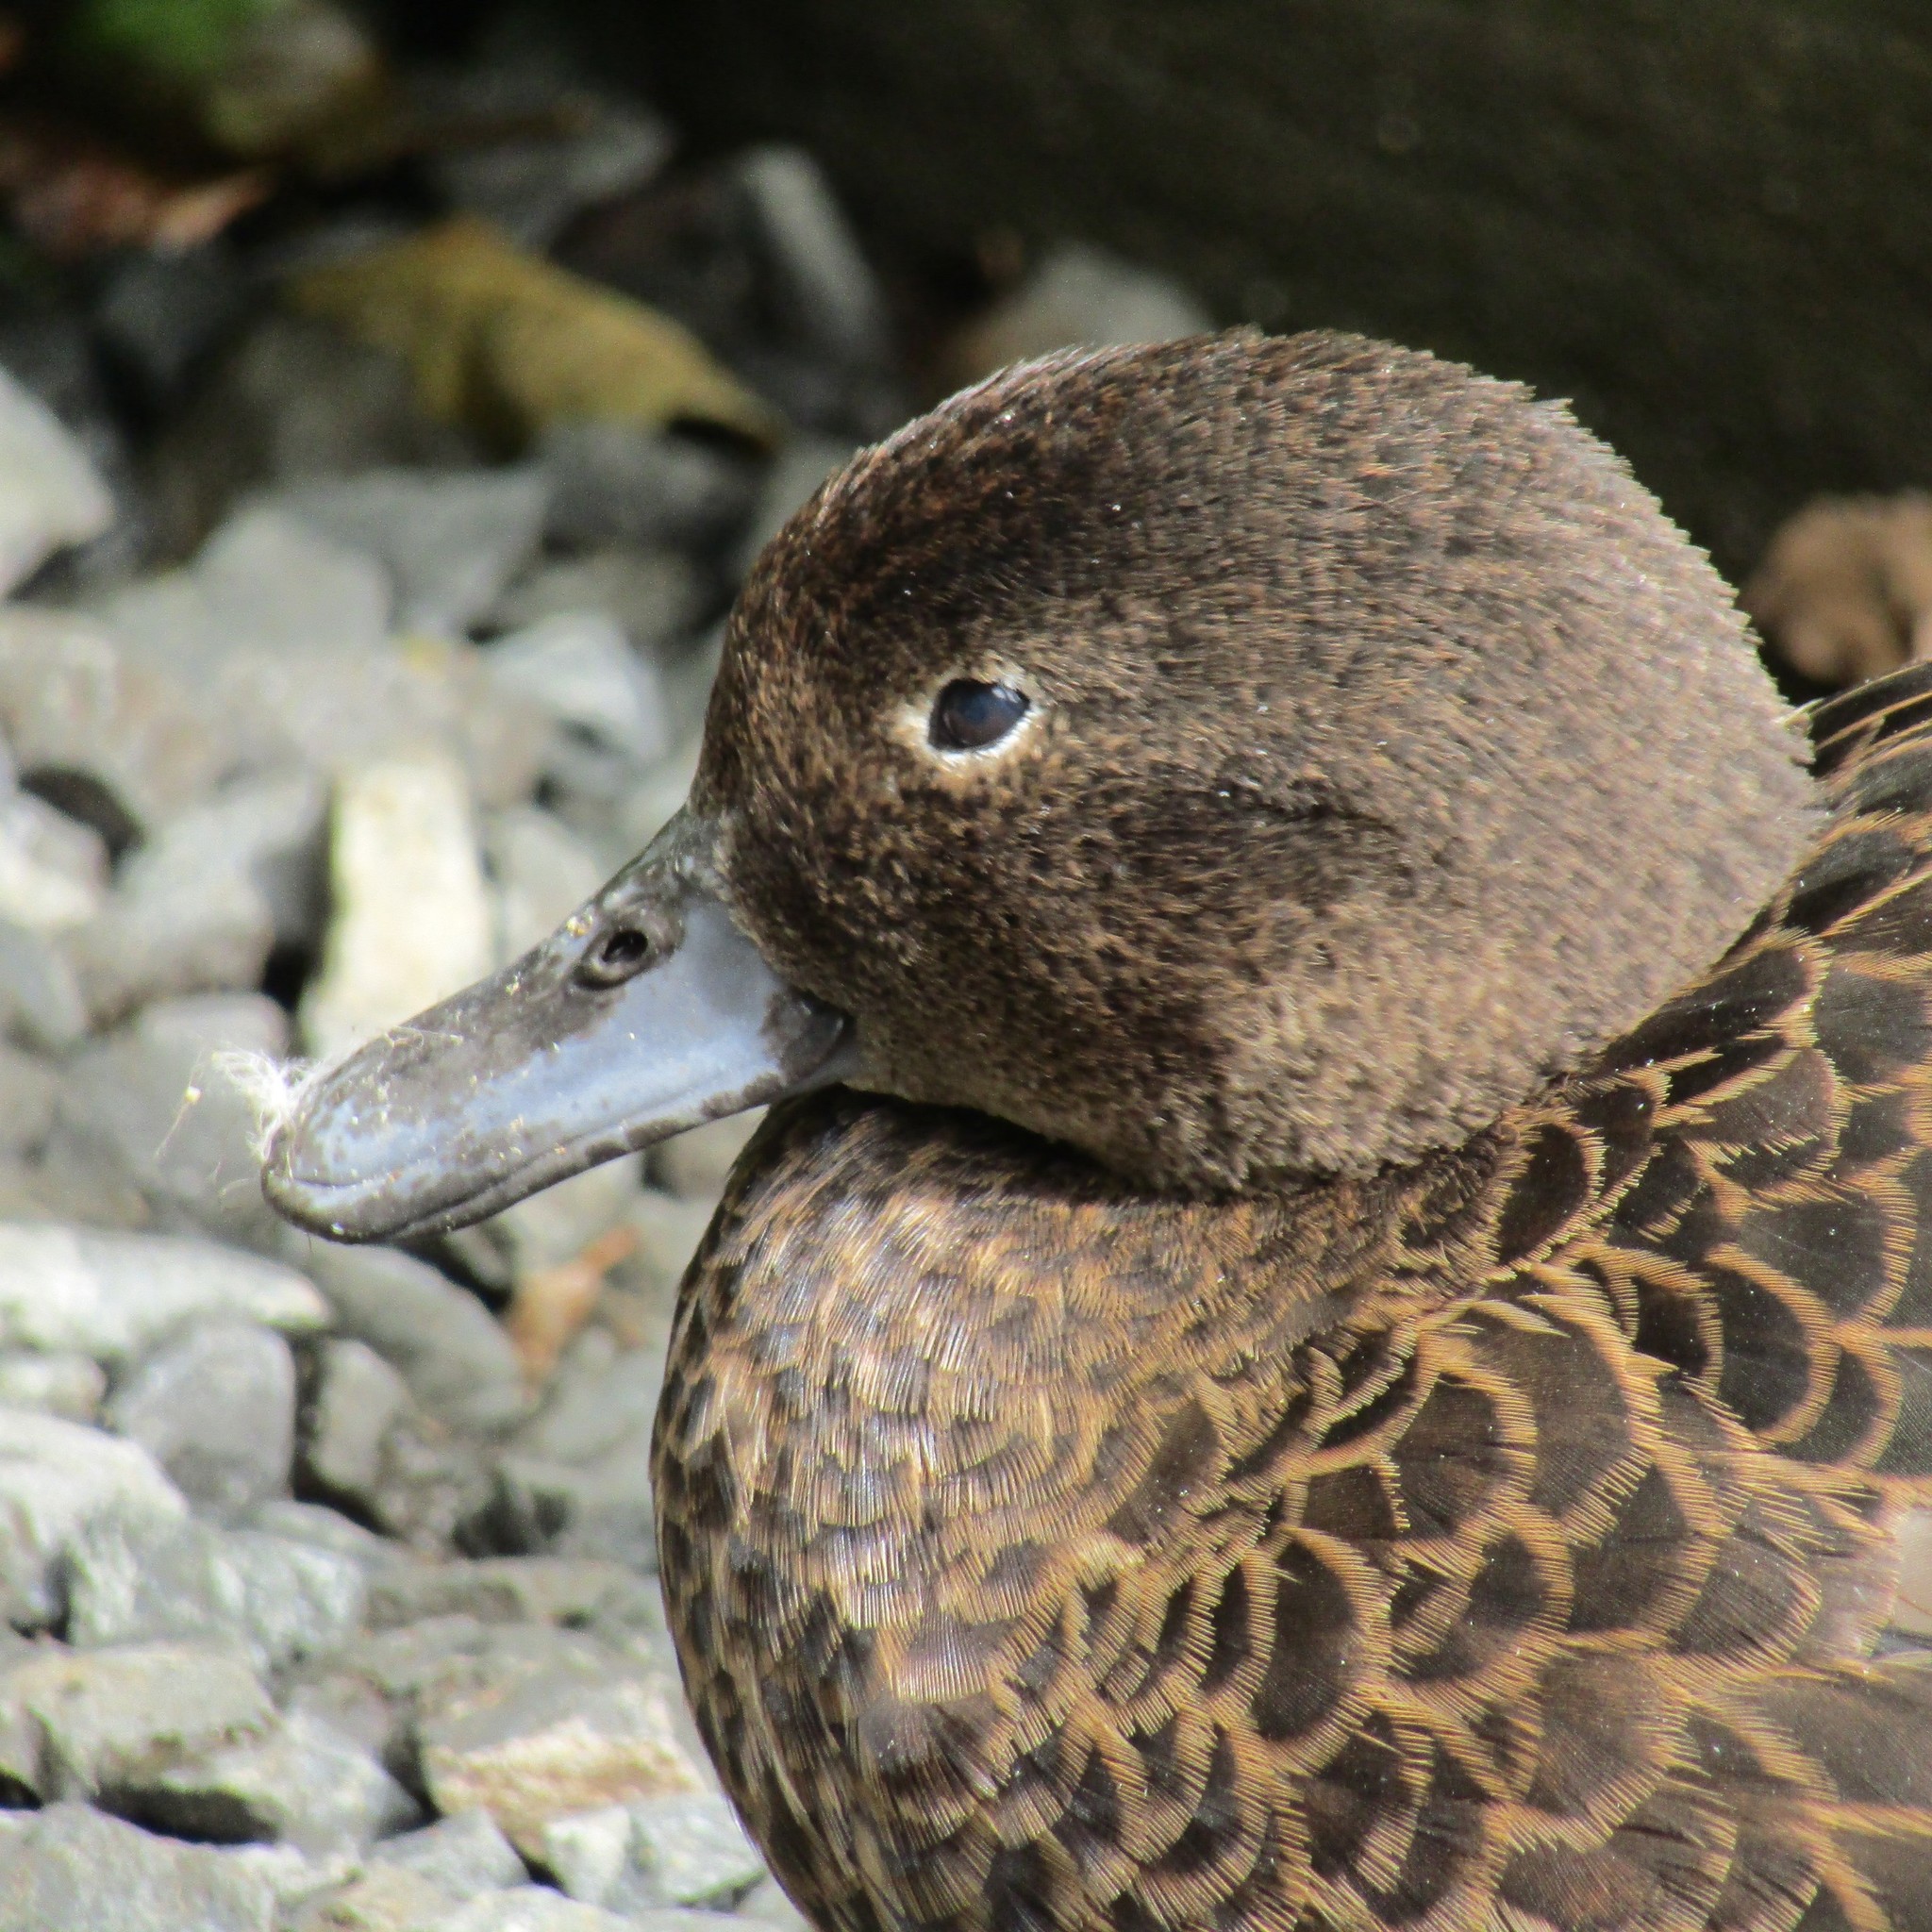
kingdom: Animalia
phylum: Chordata
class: Aves
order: Anseriformes
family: Anatidae
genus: Anas
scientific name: Anas chlorotis
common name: Brown teal
